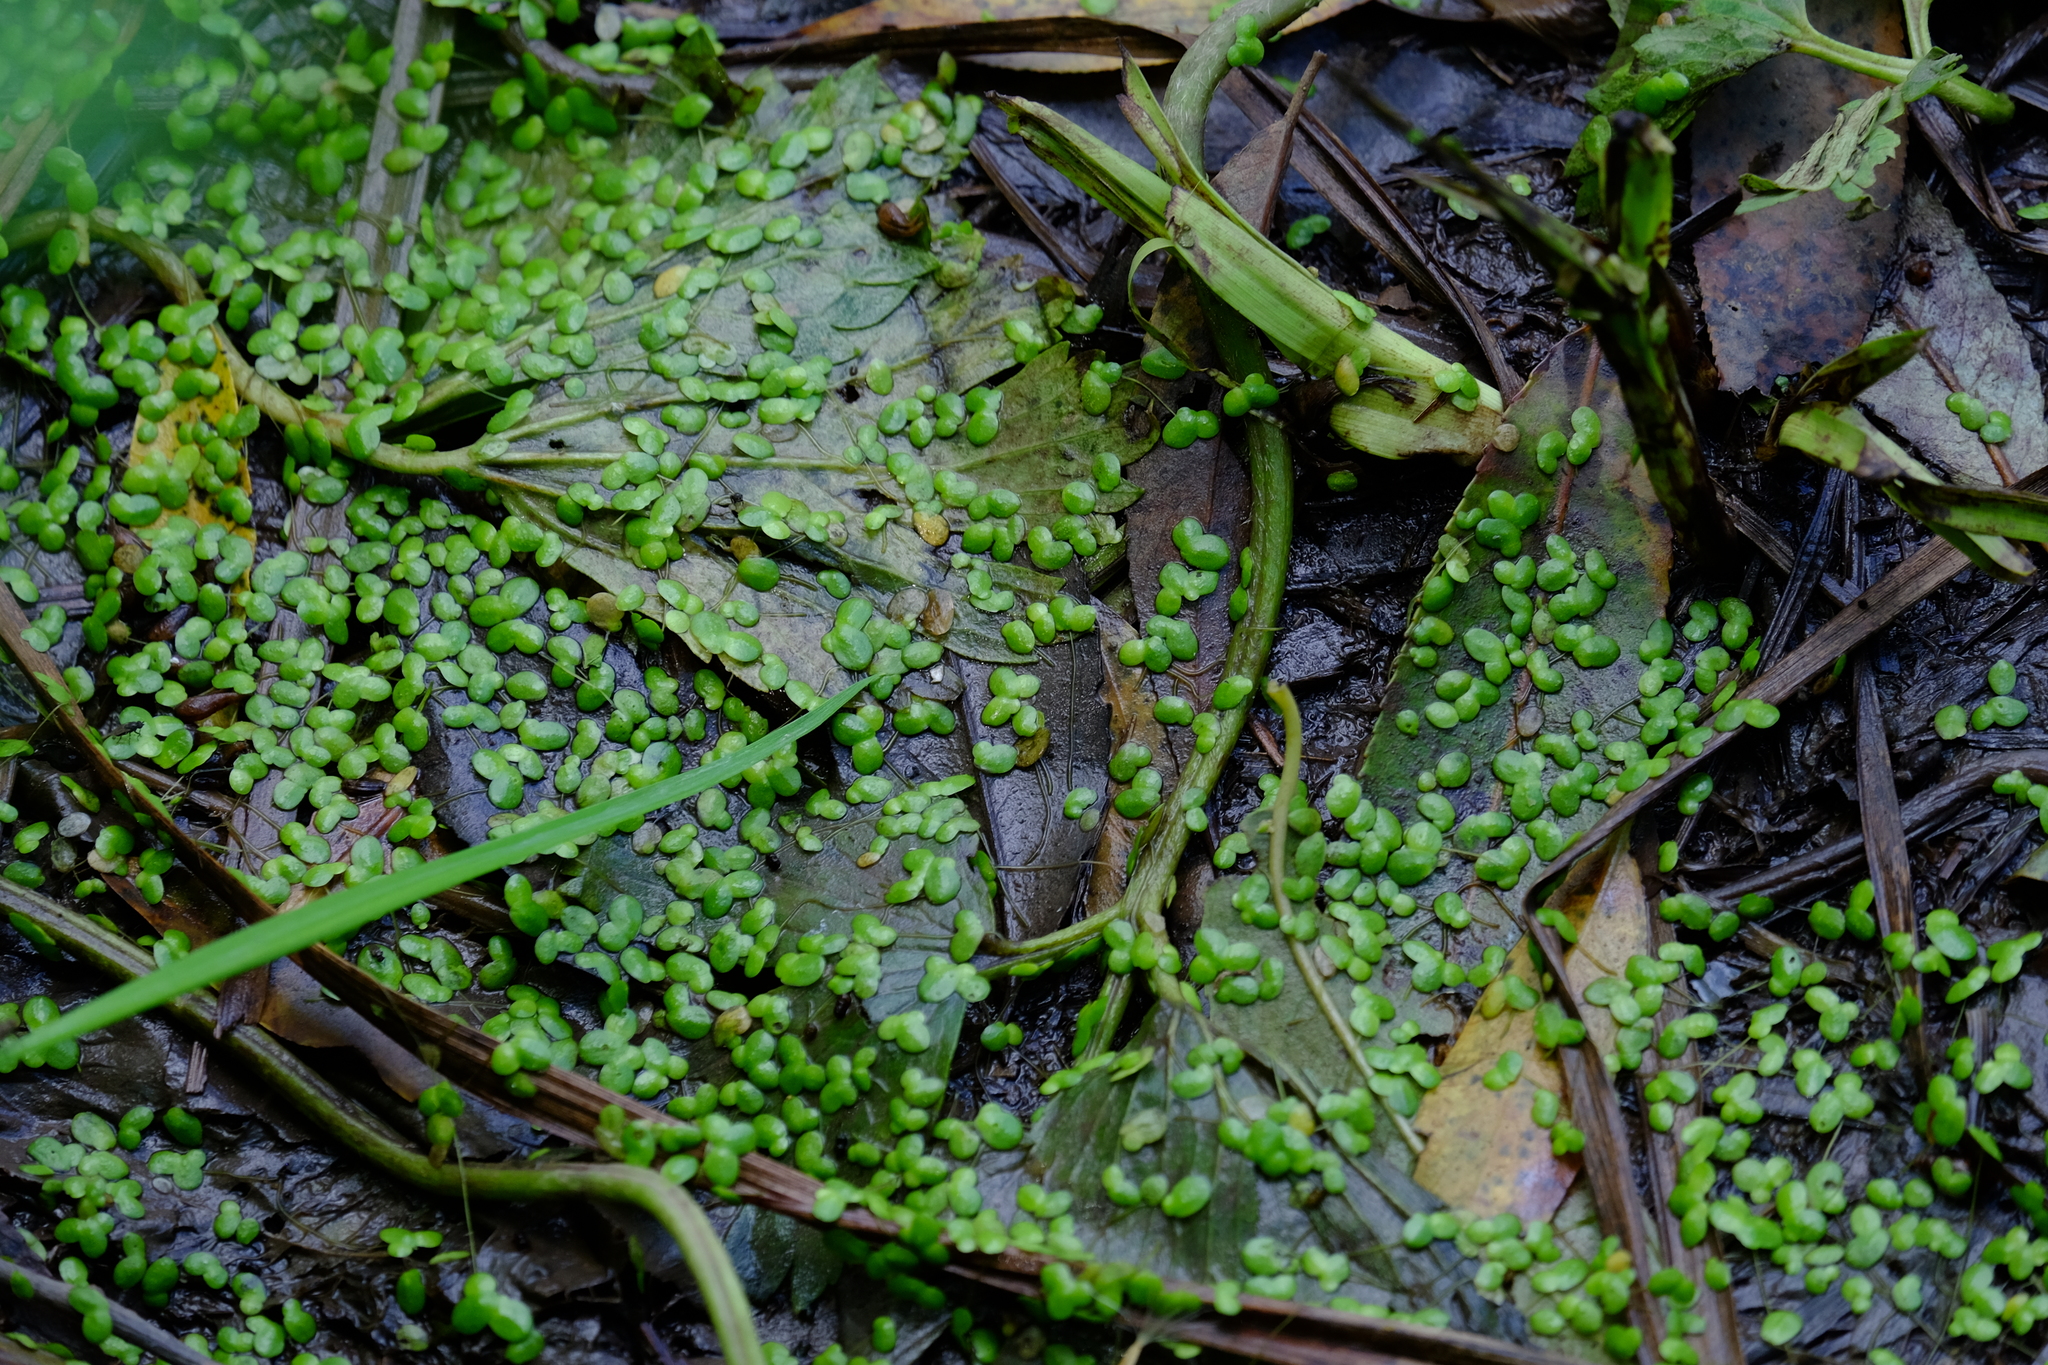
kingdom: Plantae
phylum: Tracheophyta
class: Liliopsida
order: Alismatales
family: Araceae
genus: Lemna
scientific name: Lemna minor
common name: Common duckweed
